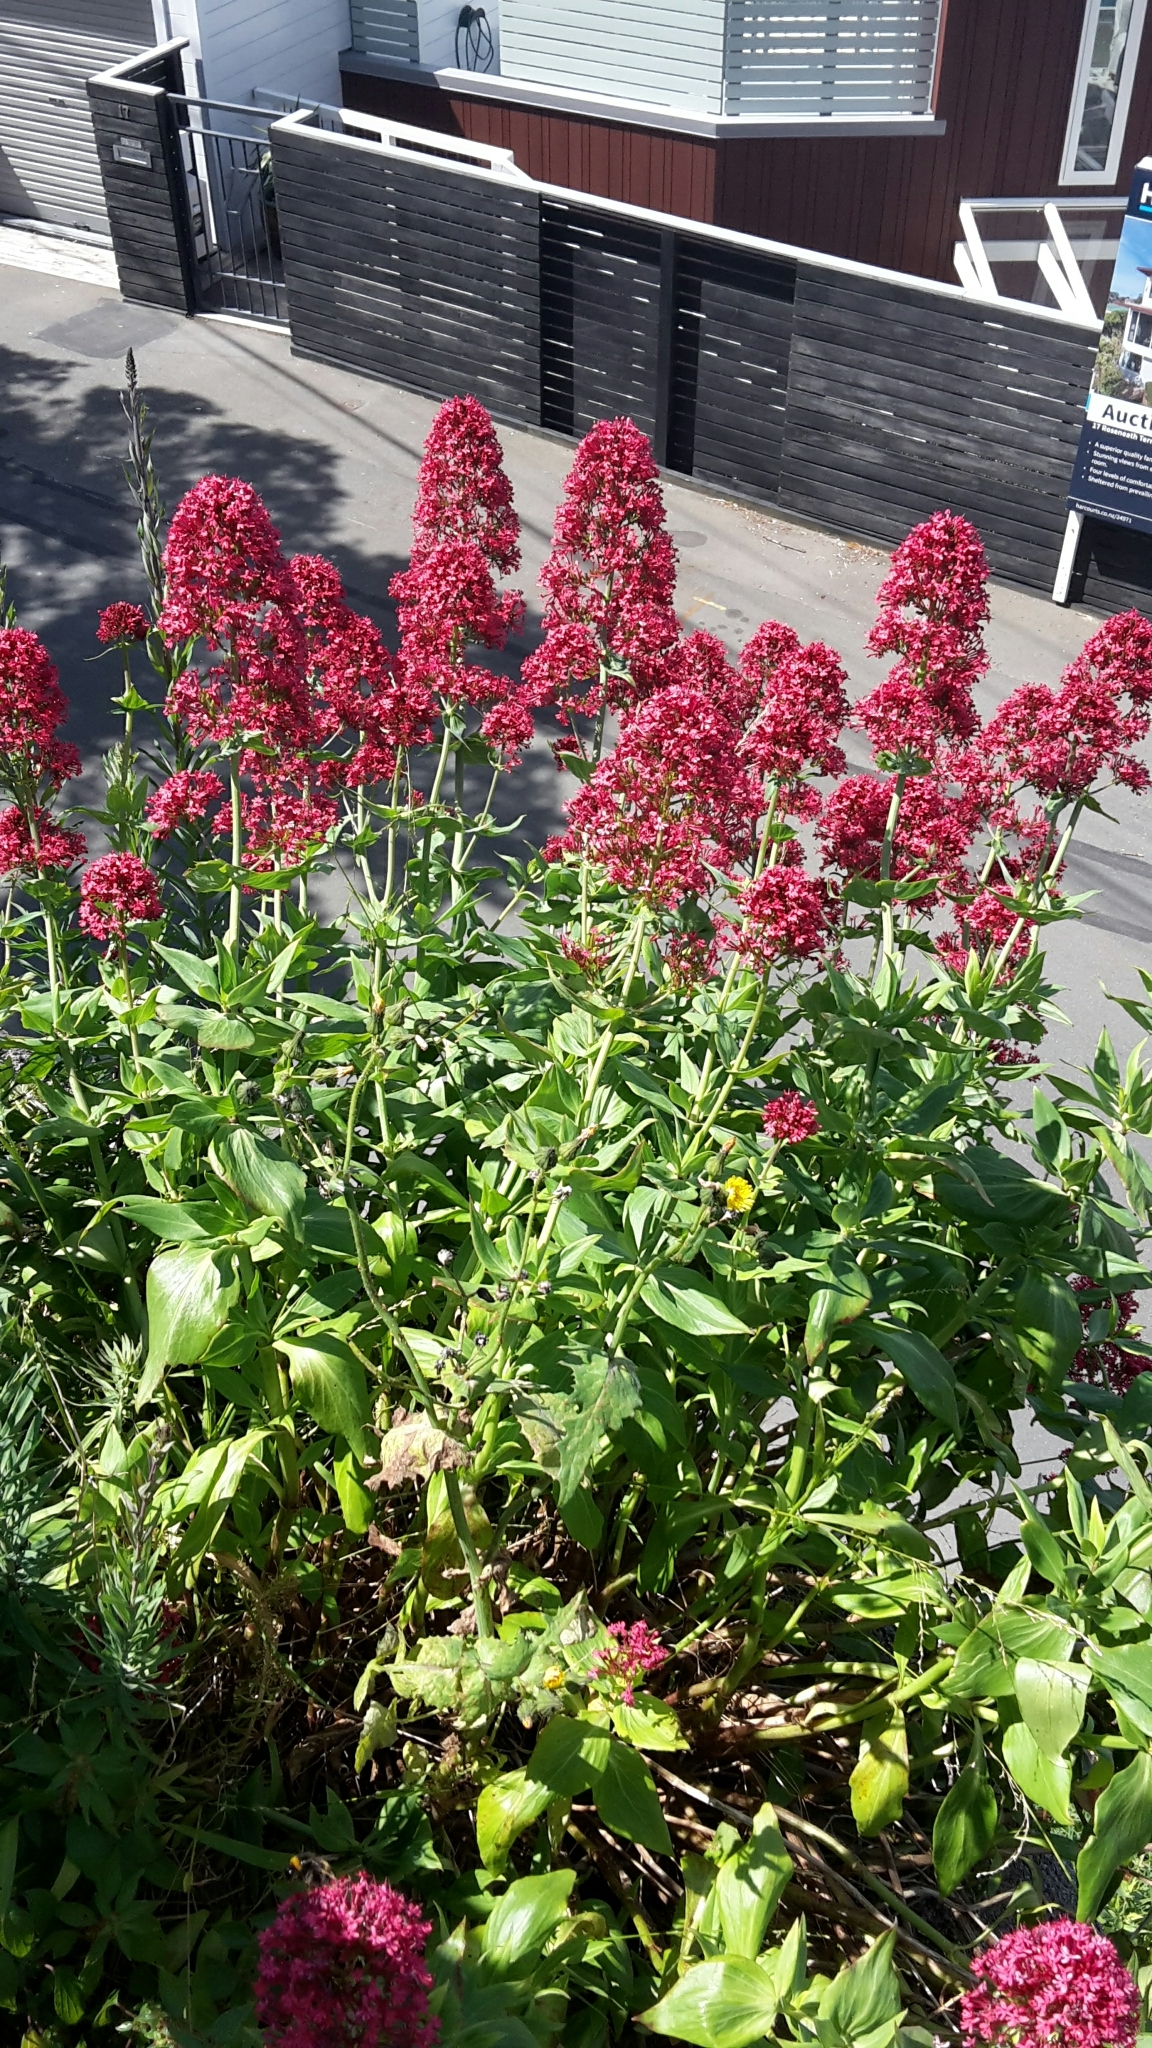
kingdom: Plantae
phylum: Tracheophyta
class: Magnoliopsida
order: Dipsacales
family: Caprifoliaceae
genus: Centranthus
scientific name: Centranthus ruber
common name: Red valerian
